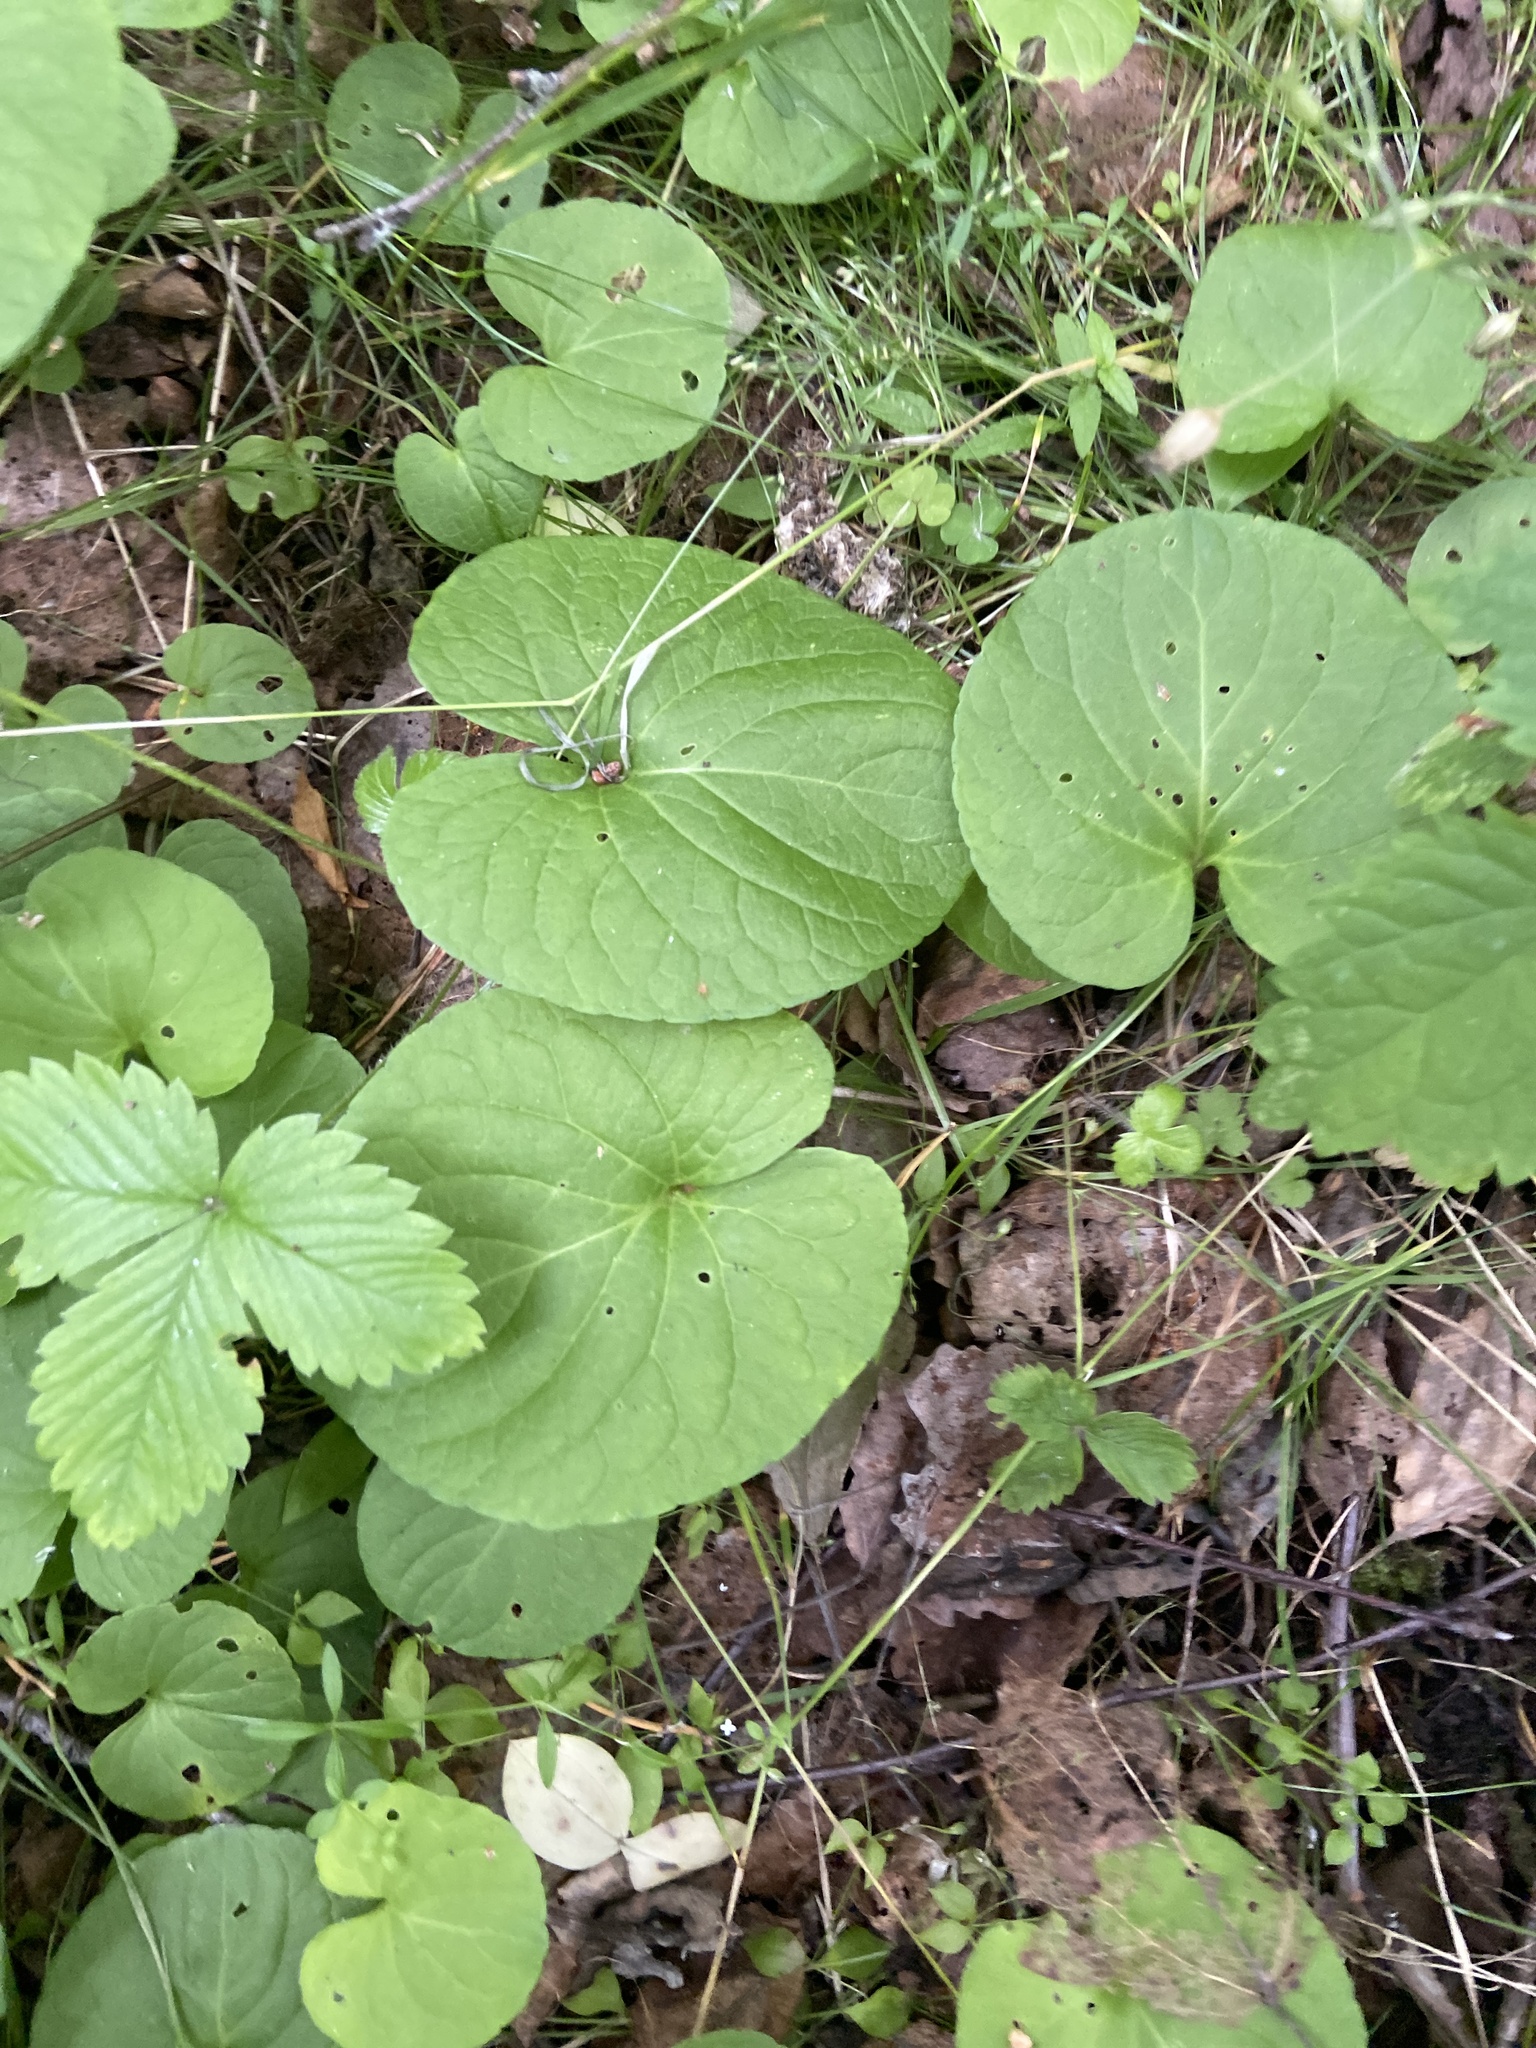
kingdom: Plantae
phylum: Tracheophyta
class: Magnoliopsida
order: Malpighiales
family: Violaceae
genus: Viola
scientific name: Viola epipsila
